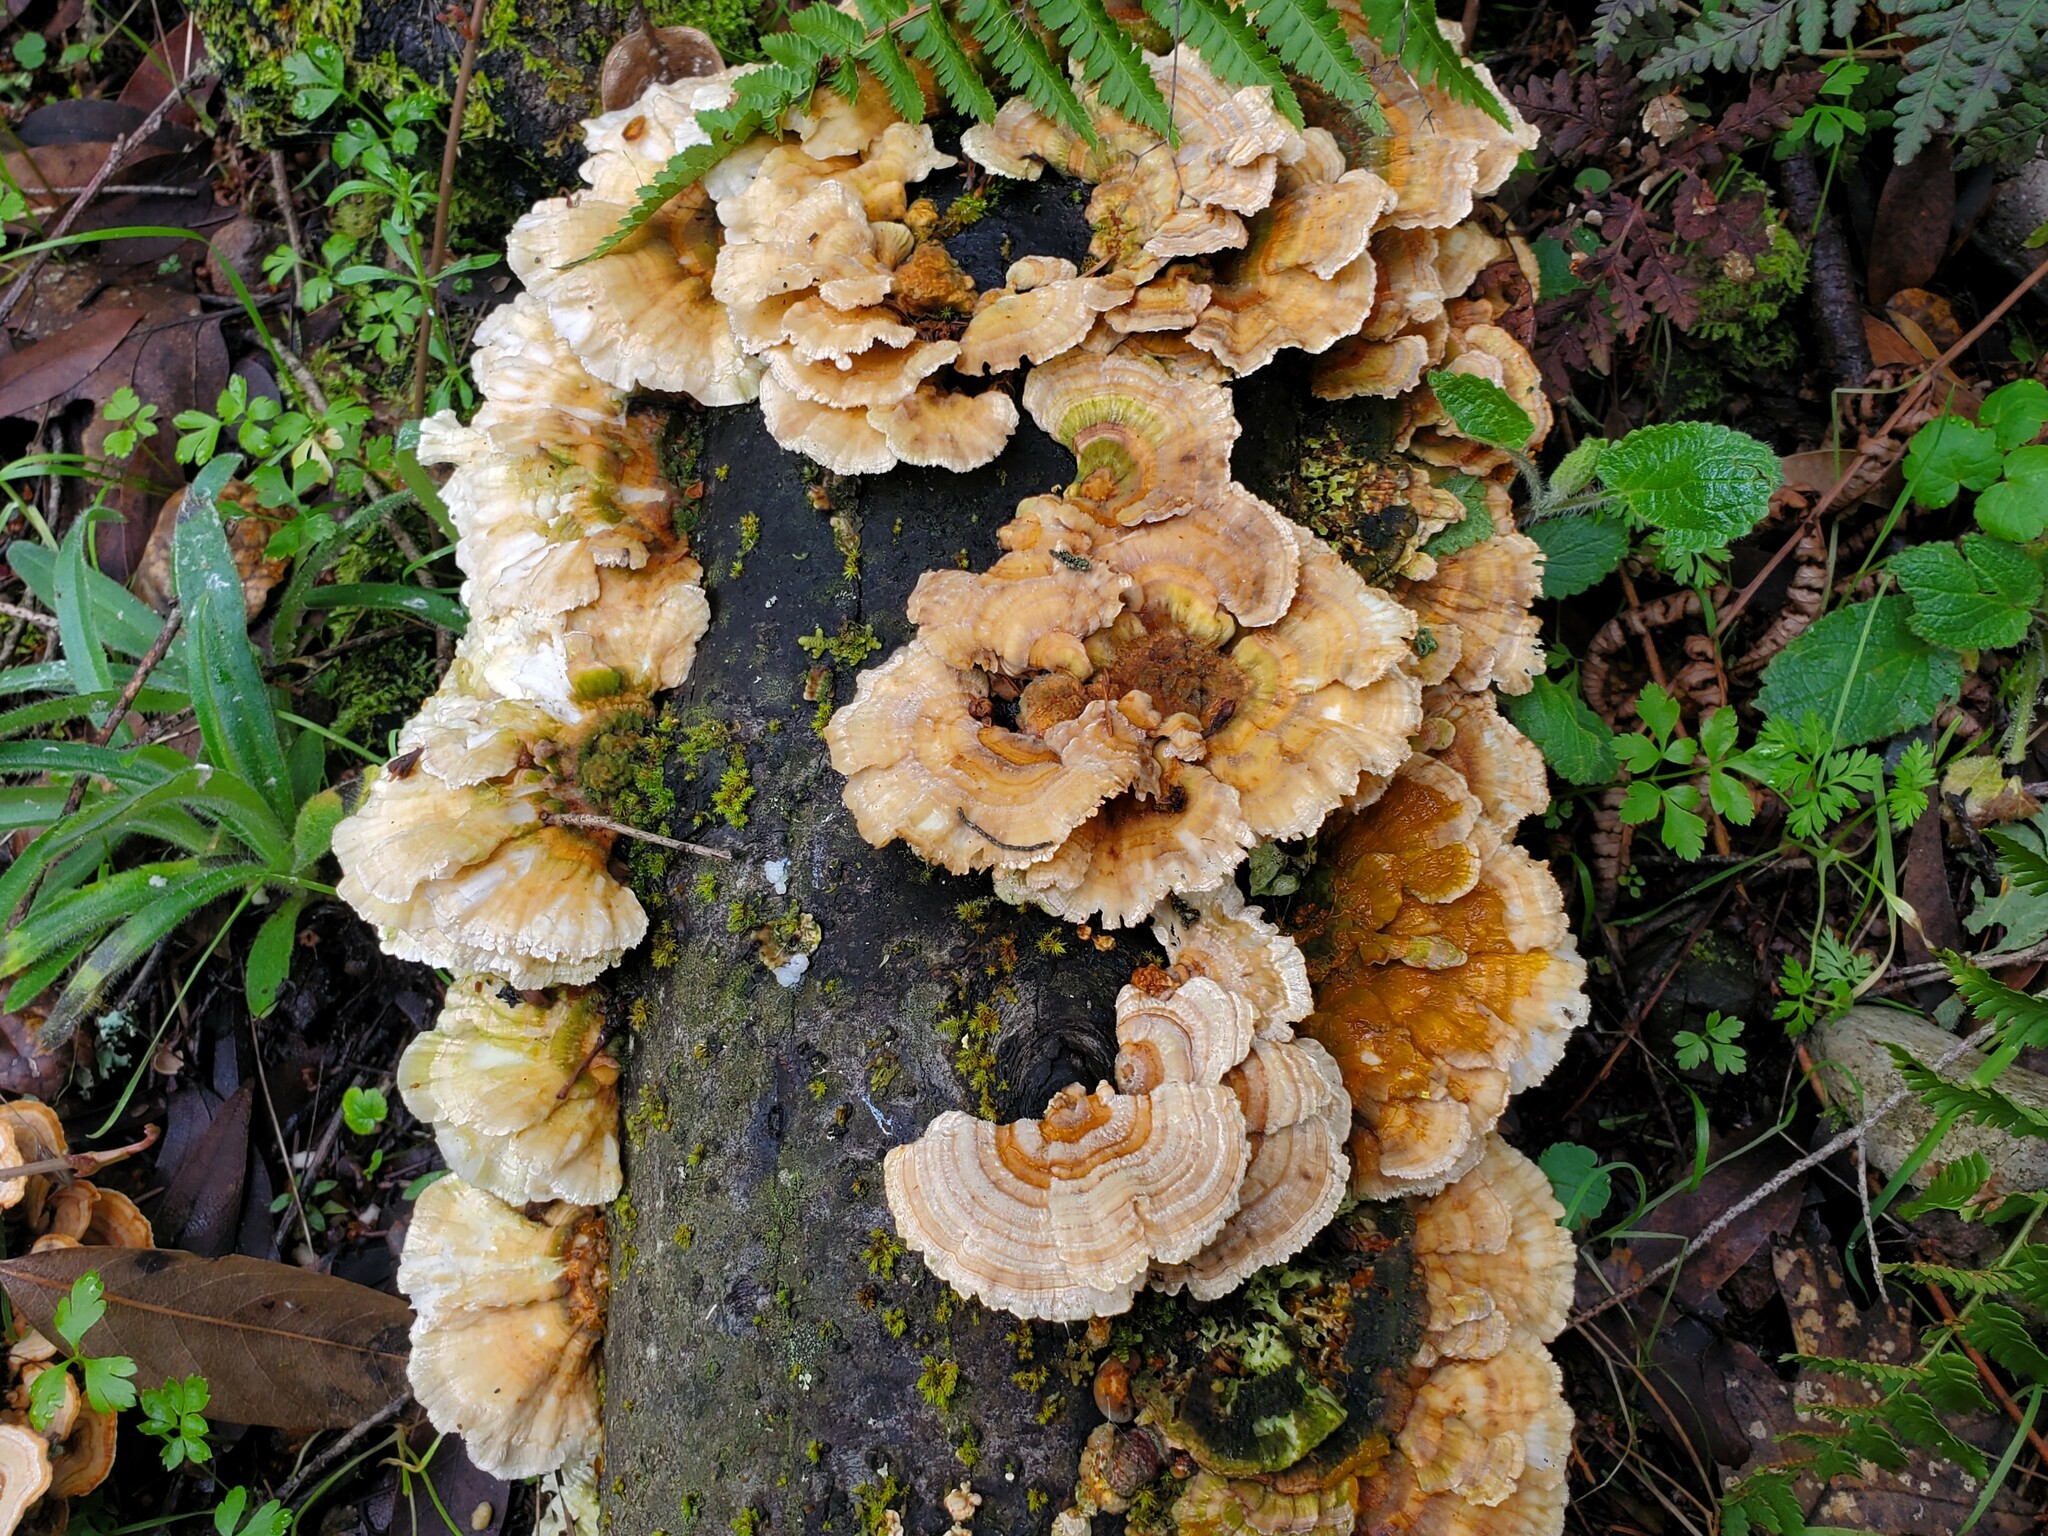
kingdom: Fungi
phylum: Basidiomycota
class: Agaricomycetes
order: Polyporales
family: Polyporaceae
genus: Trametes
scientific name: Trametes versicolor
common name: Turkeytail
